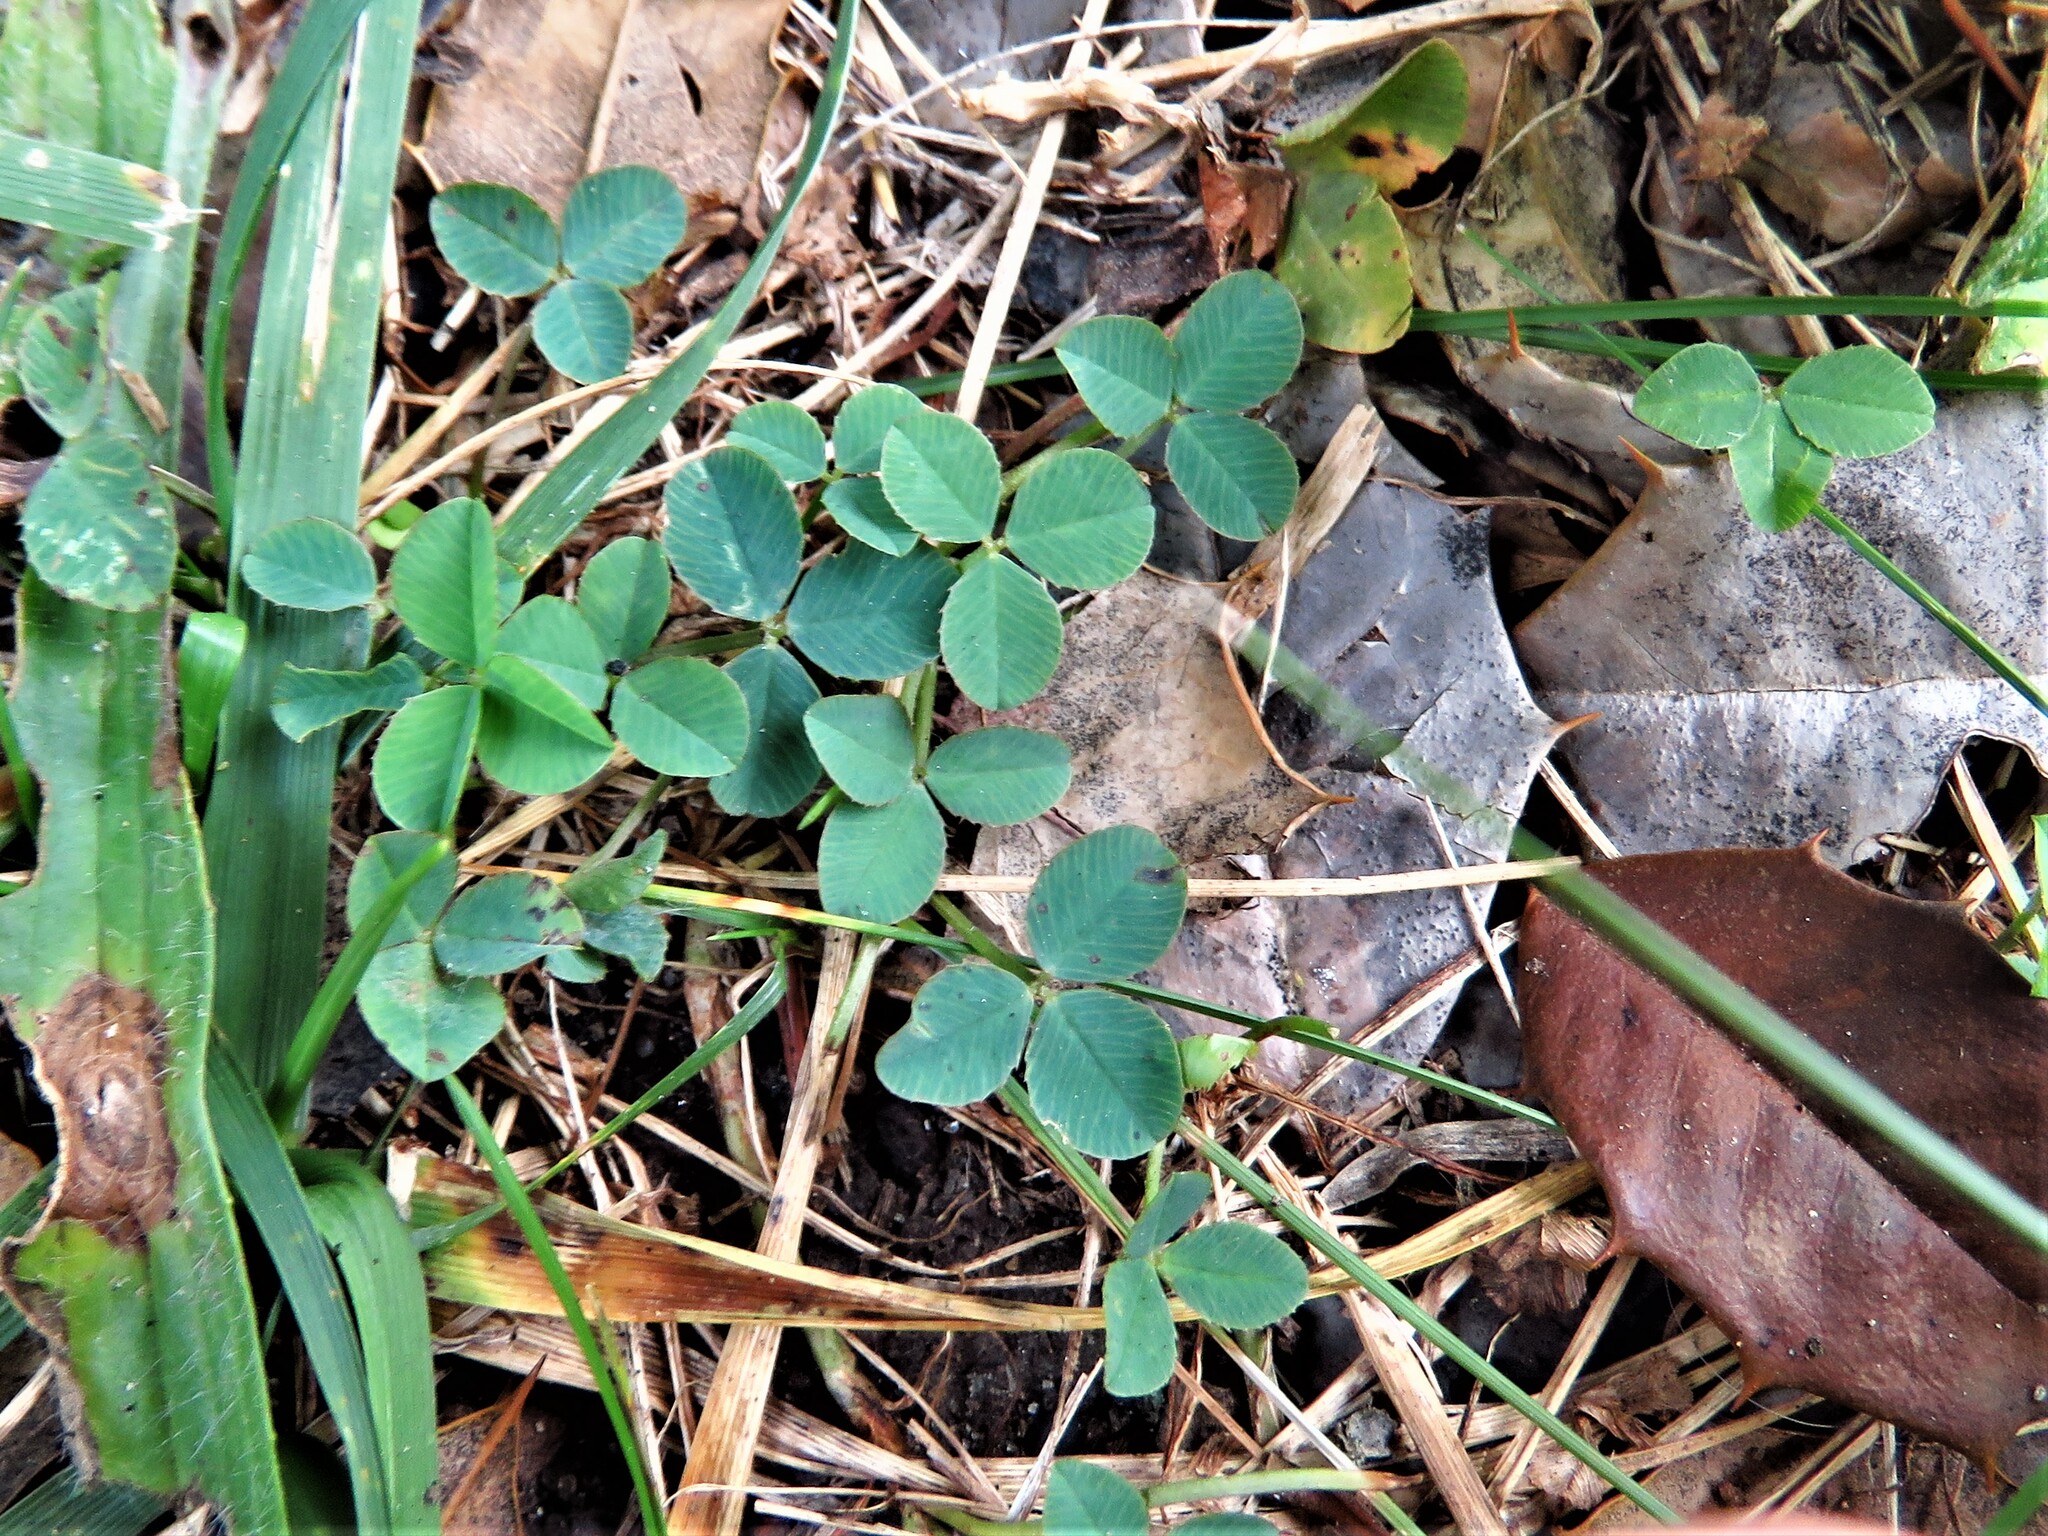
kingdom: Plantae
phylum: Tracheophyta
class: Magnoliopsida
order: Fabales
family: Fabaceae
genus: Trifolium
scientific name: Trifolium repens
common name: White clover
